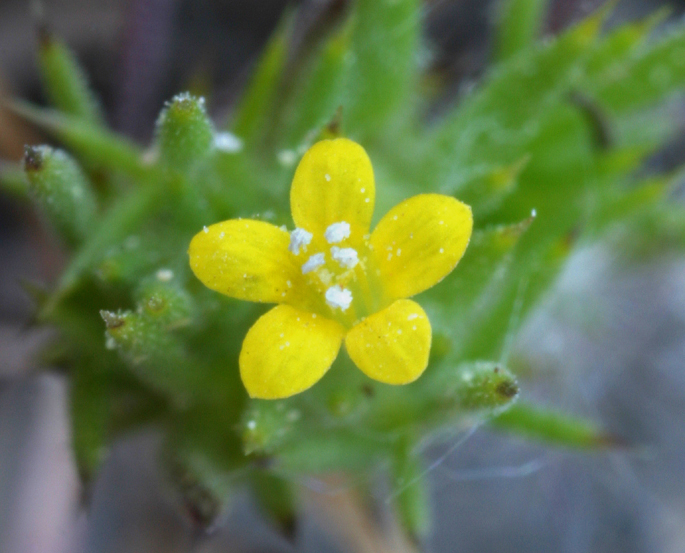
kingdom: Plantae
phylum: Tracheophyta
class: Magnoliopsida
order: Ericales
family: Polemoniaceae
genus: Navarretia
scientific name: Navarretia breweri
